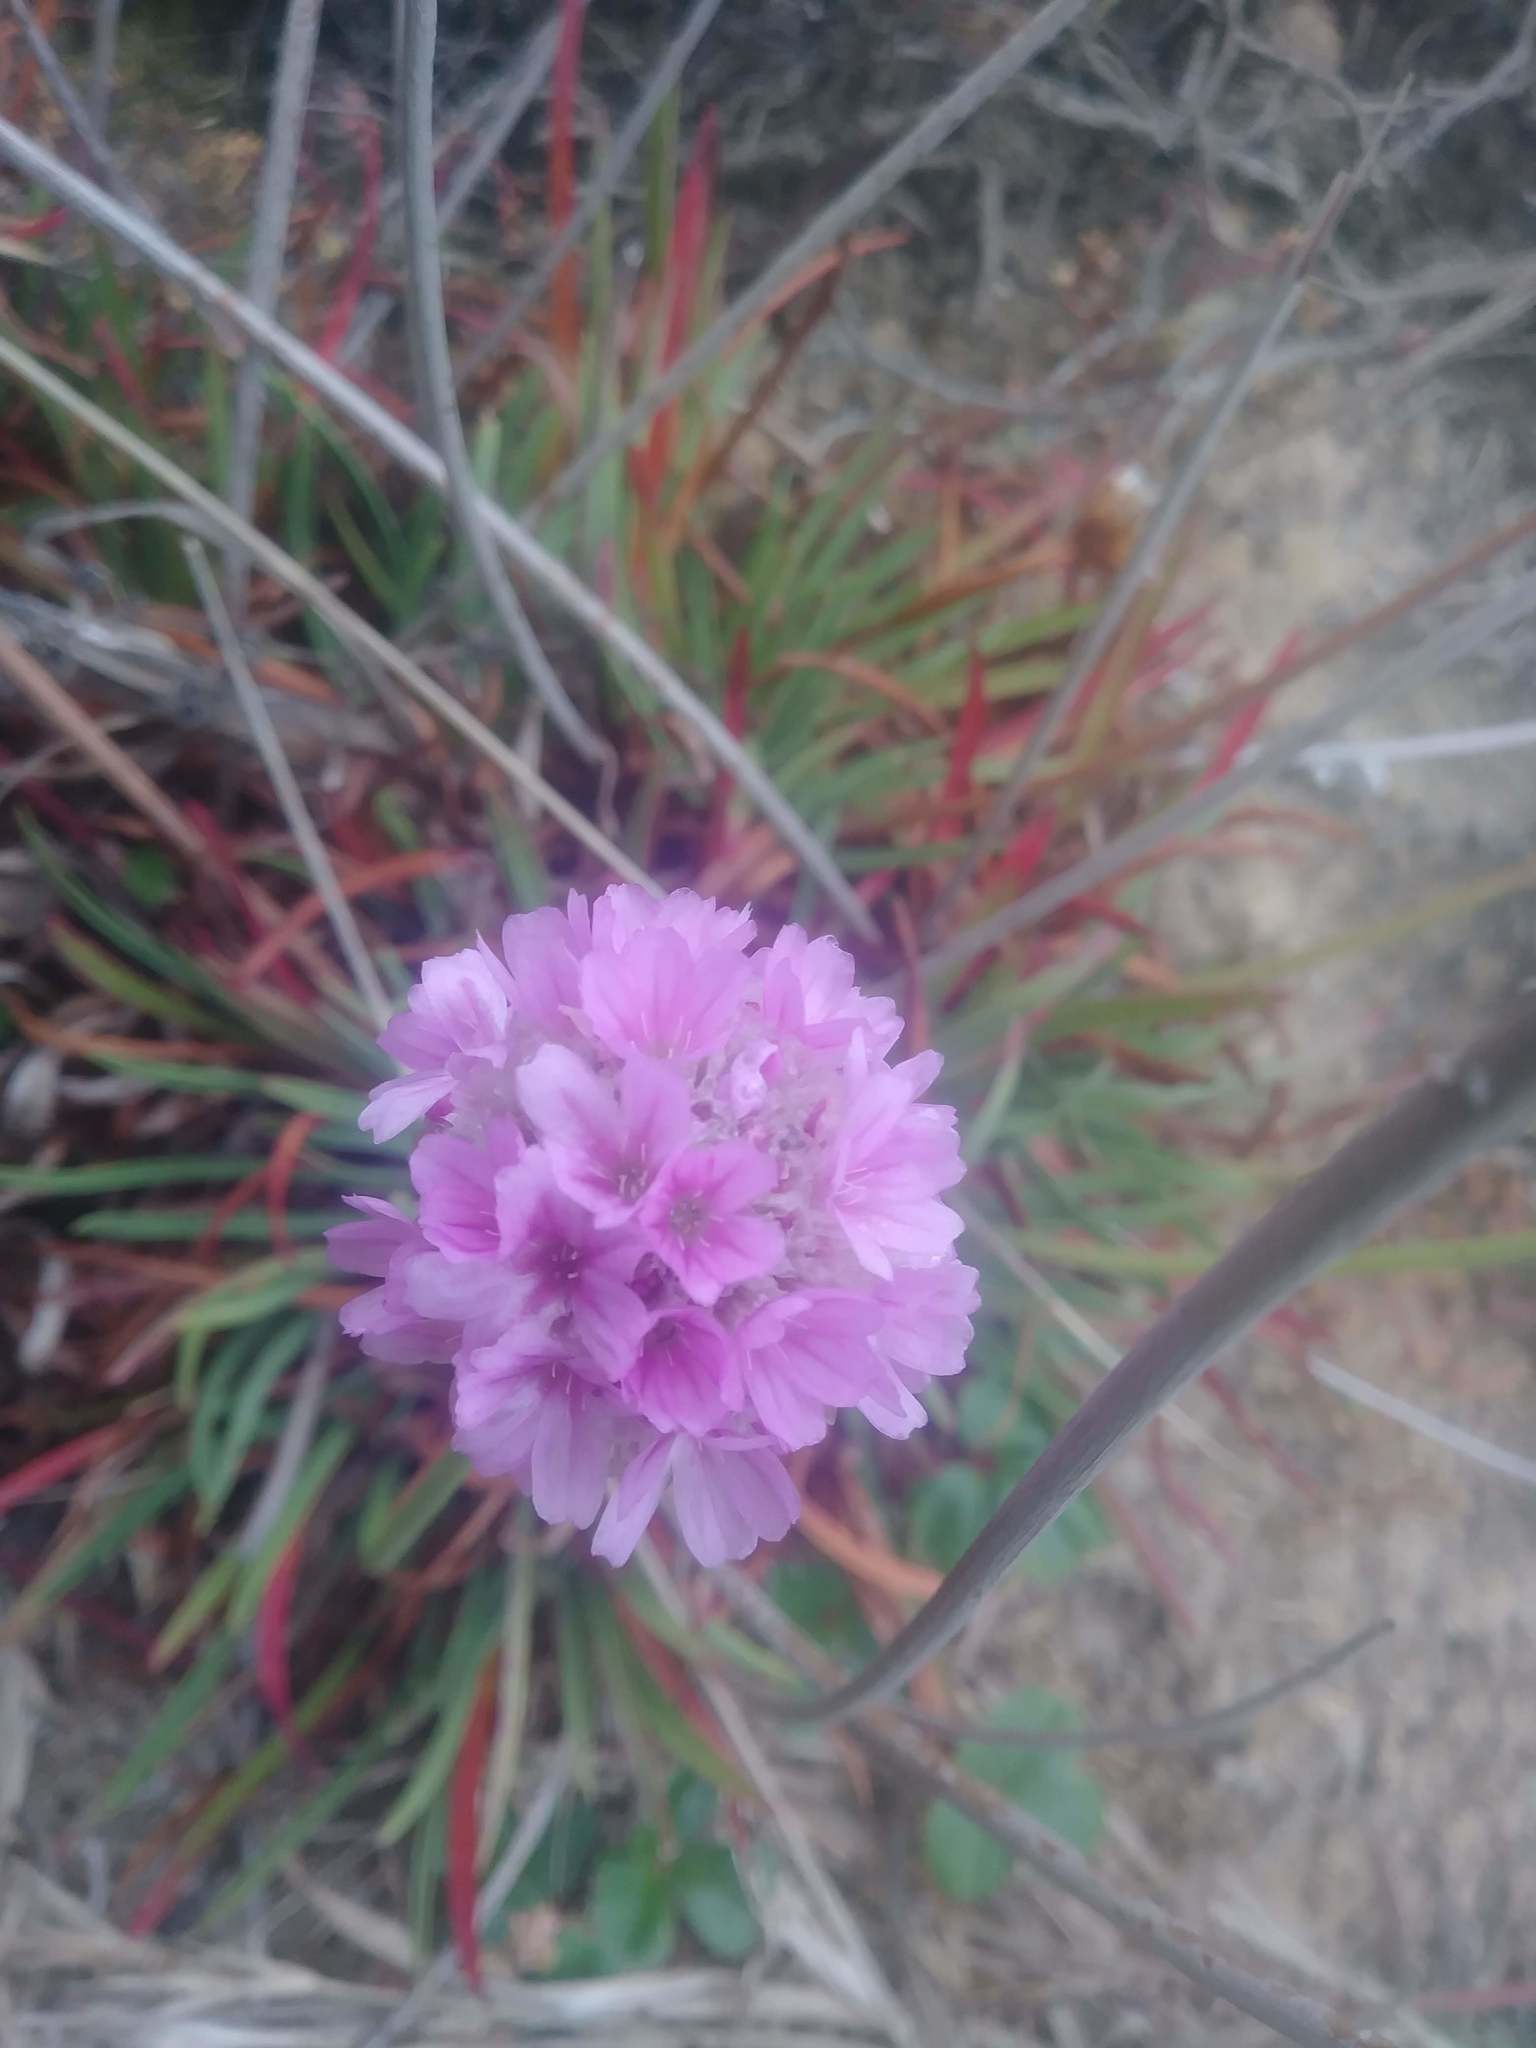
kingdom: Plantae
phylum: Tracheophyta
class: Magnoliopsida
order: Caryophyllales
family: Plumbaginaceae
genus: Armeria
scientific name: Armeria maritima
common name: Thrift
